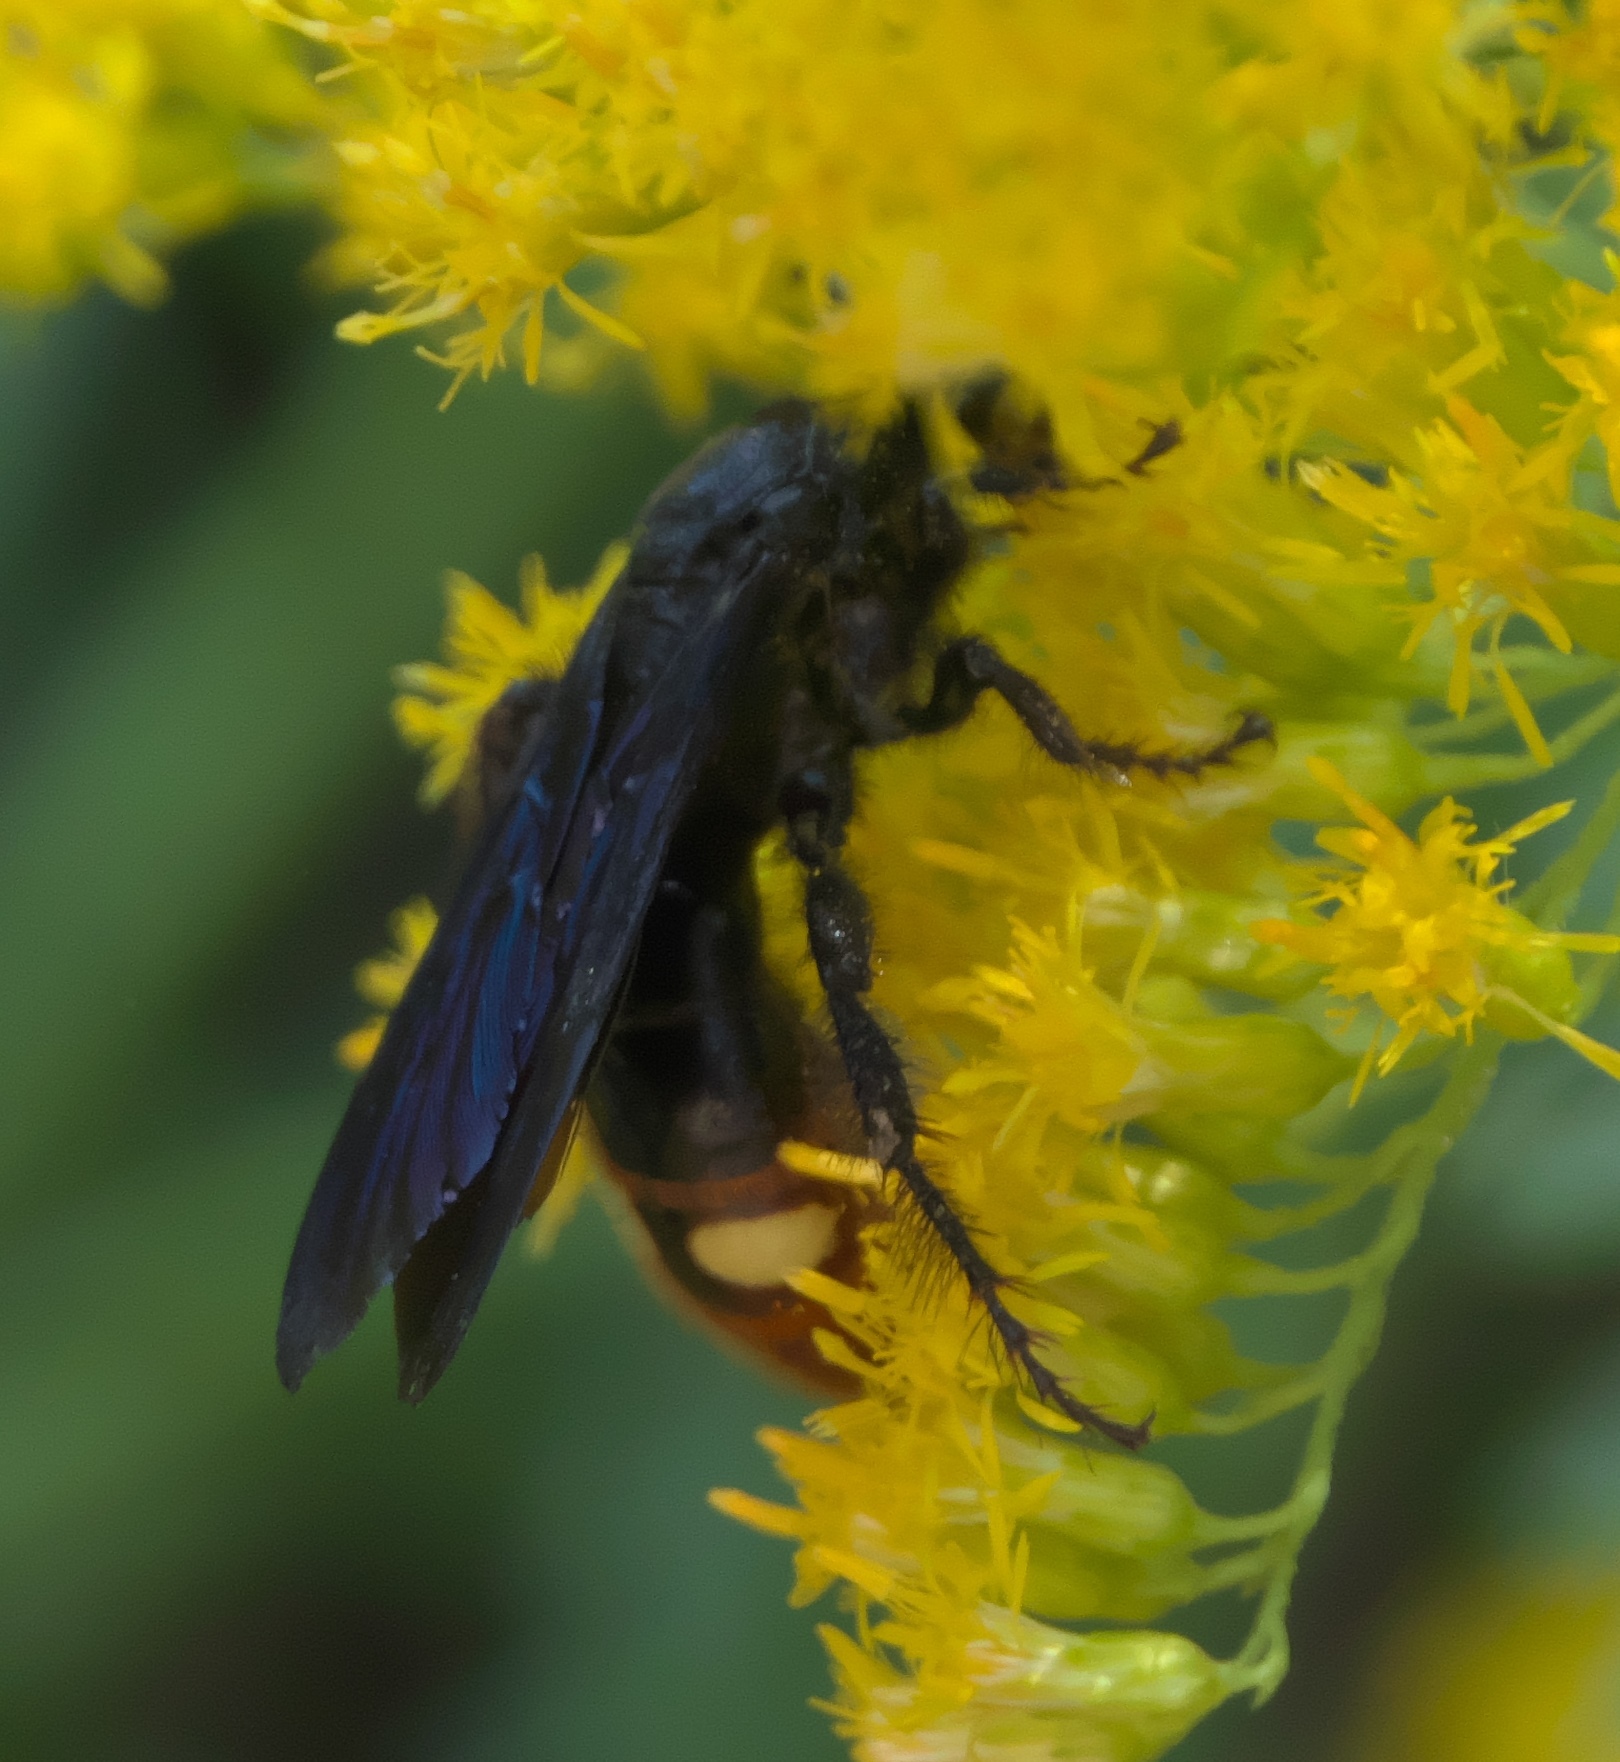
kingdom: Animalia
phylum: Arthropoda
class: Insecta
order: Hymenoptera
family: Scoliidae
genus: Scolia
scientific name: Scolia dubia
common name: Blue-winged scoliid wasp
